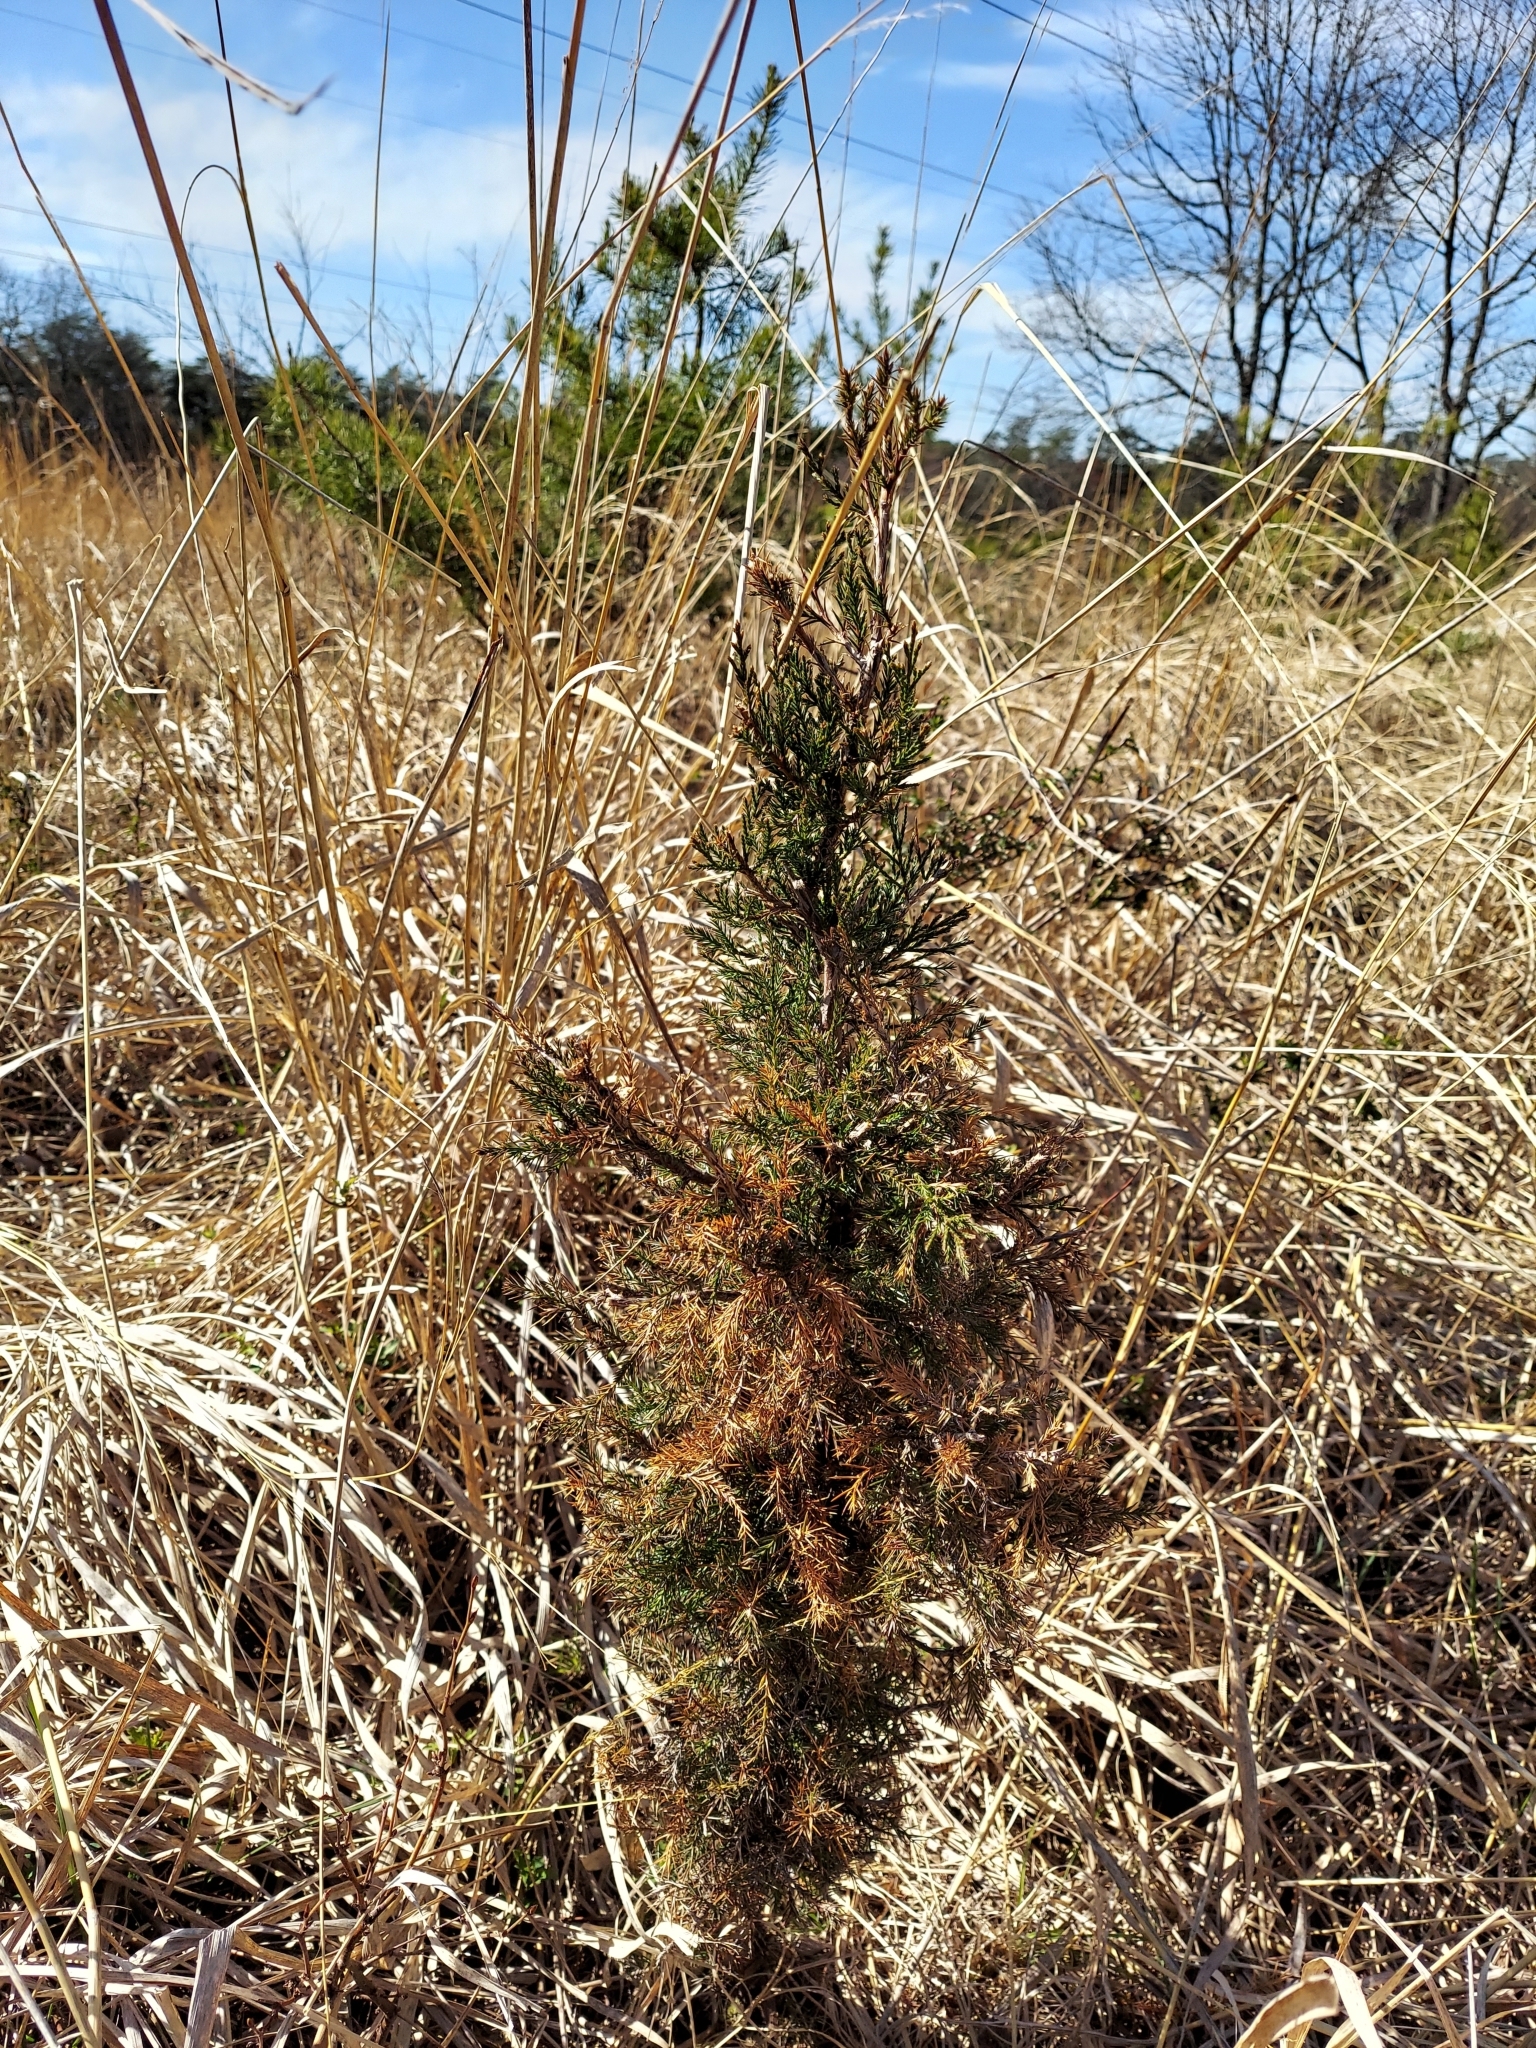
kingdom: Plantae
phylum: Tracheophyta
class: Pinopsida
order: Pinales
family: Cupressaceae
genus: Juniperus
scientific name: Juniperus virginiana
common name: Red juniper
